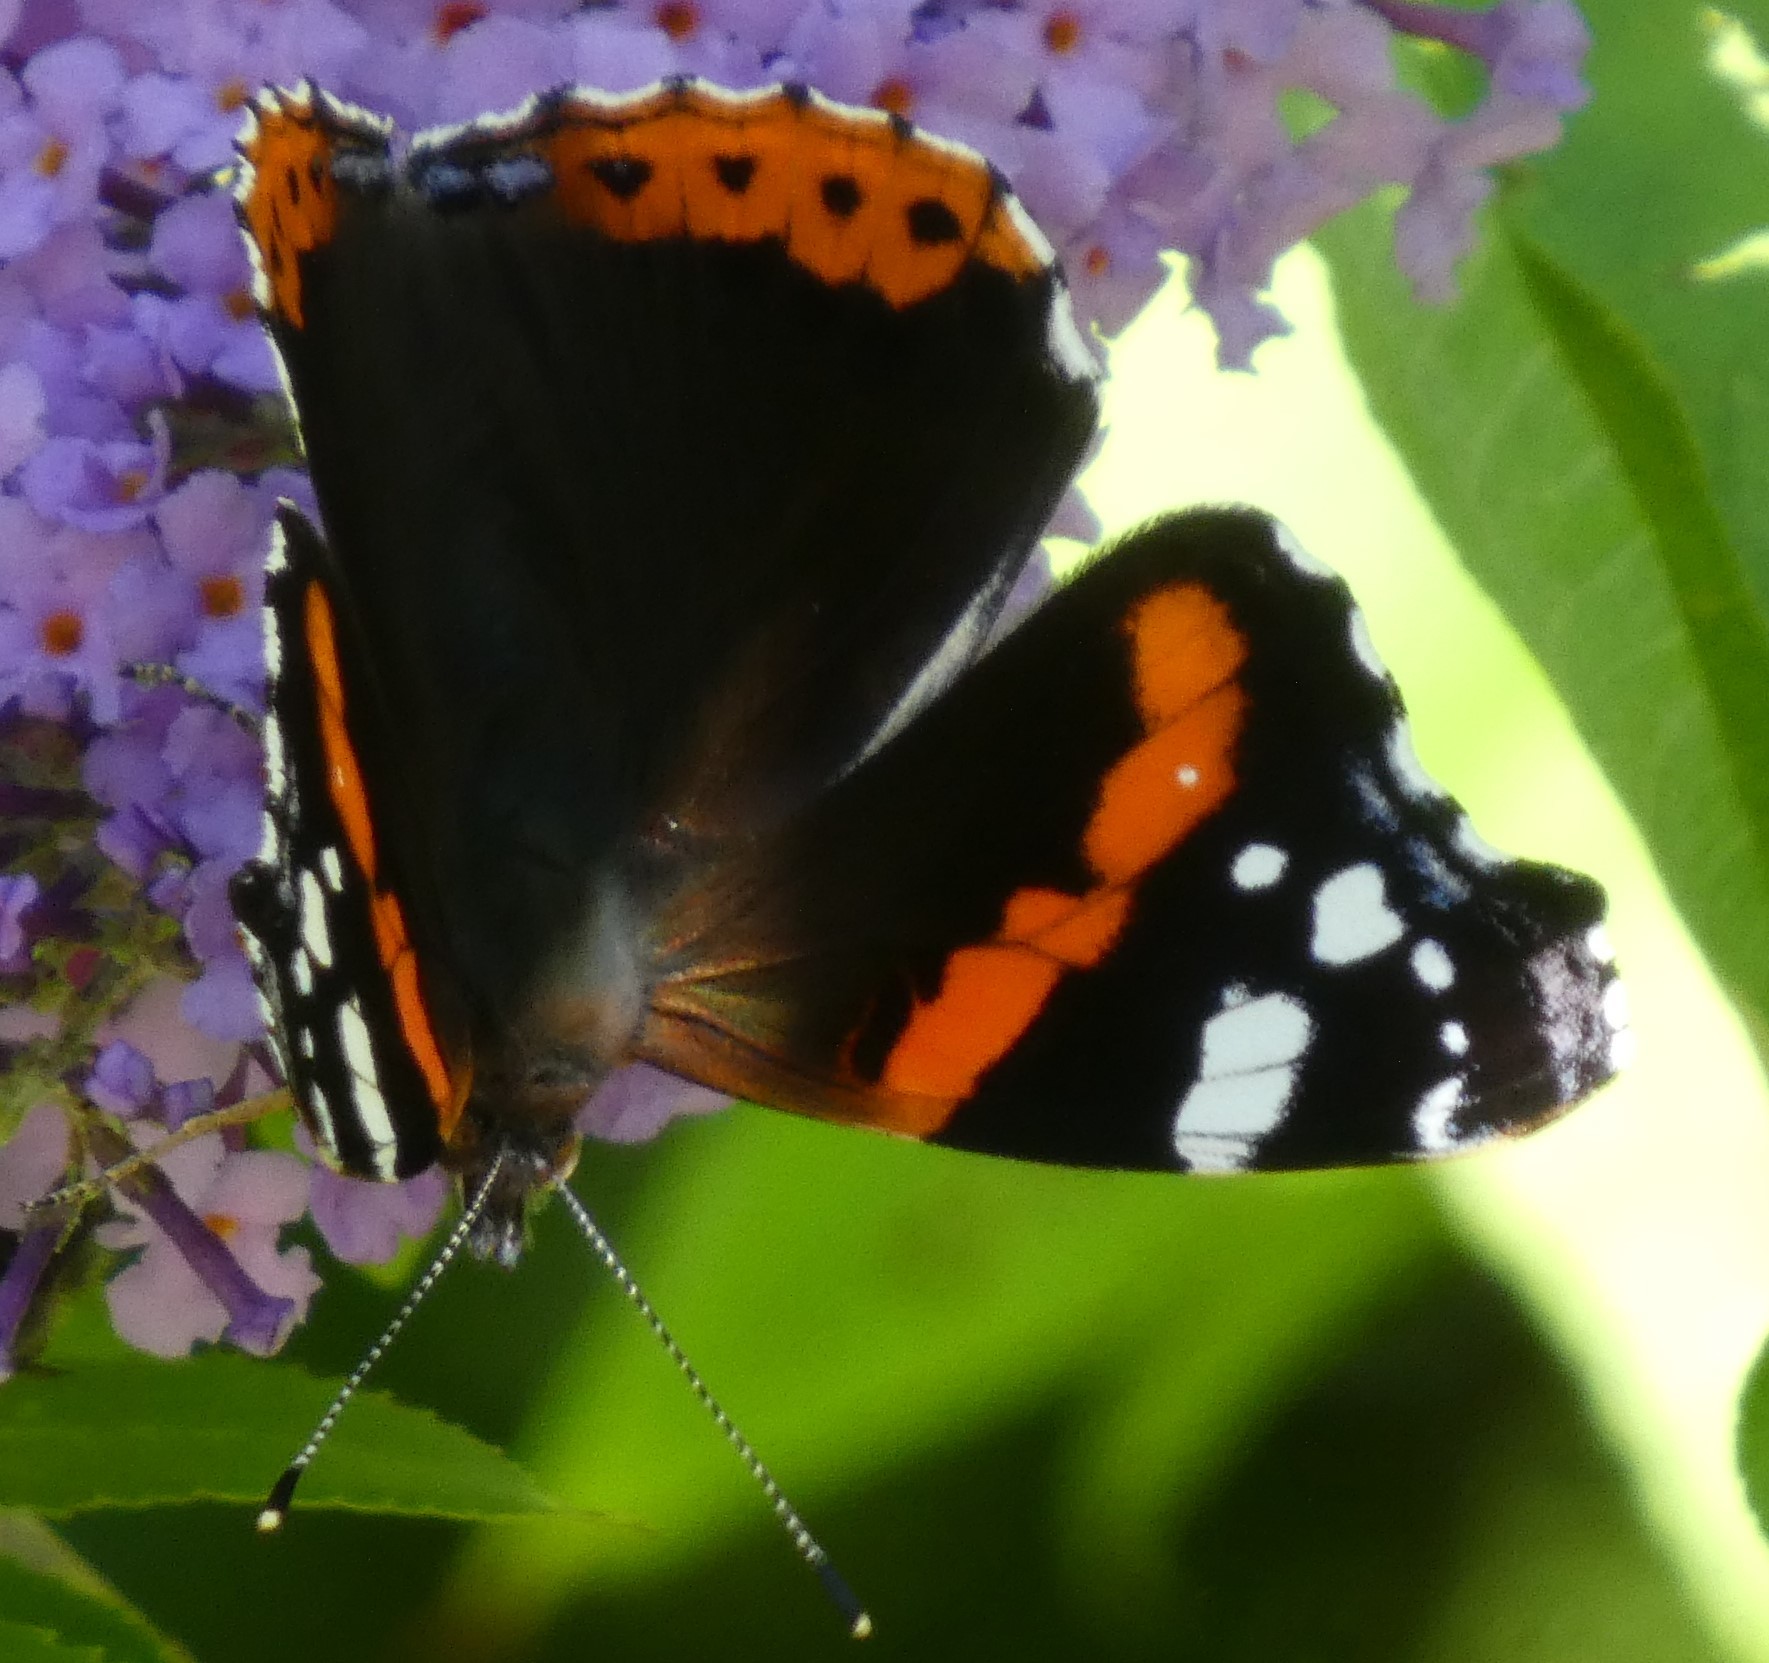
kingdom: Animalia
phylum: Arthropoda
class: Insecta
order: Lepidoptera
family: Nymphalidae
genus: Vanessa
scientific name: Vanessa atalanta
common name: Red admiral
